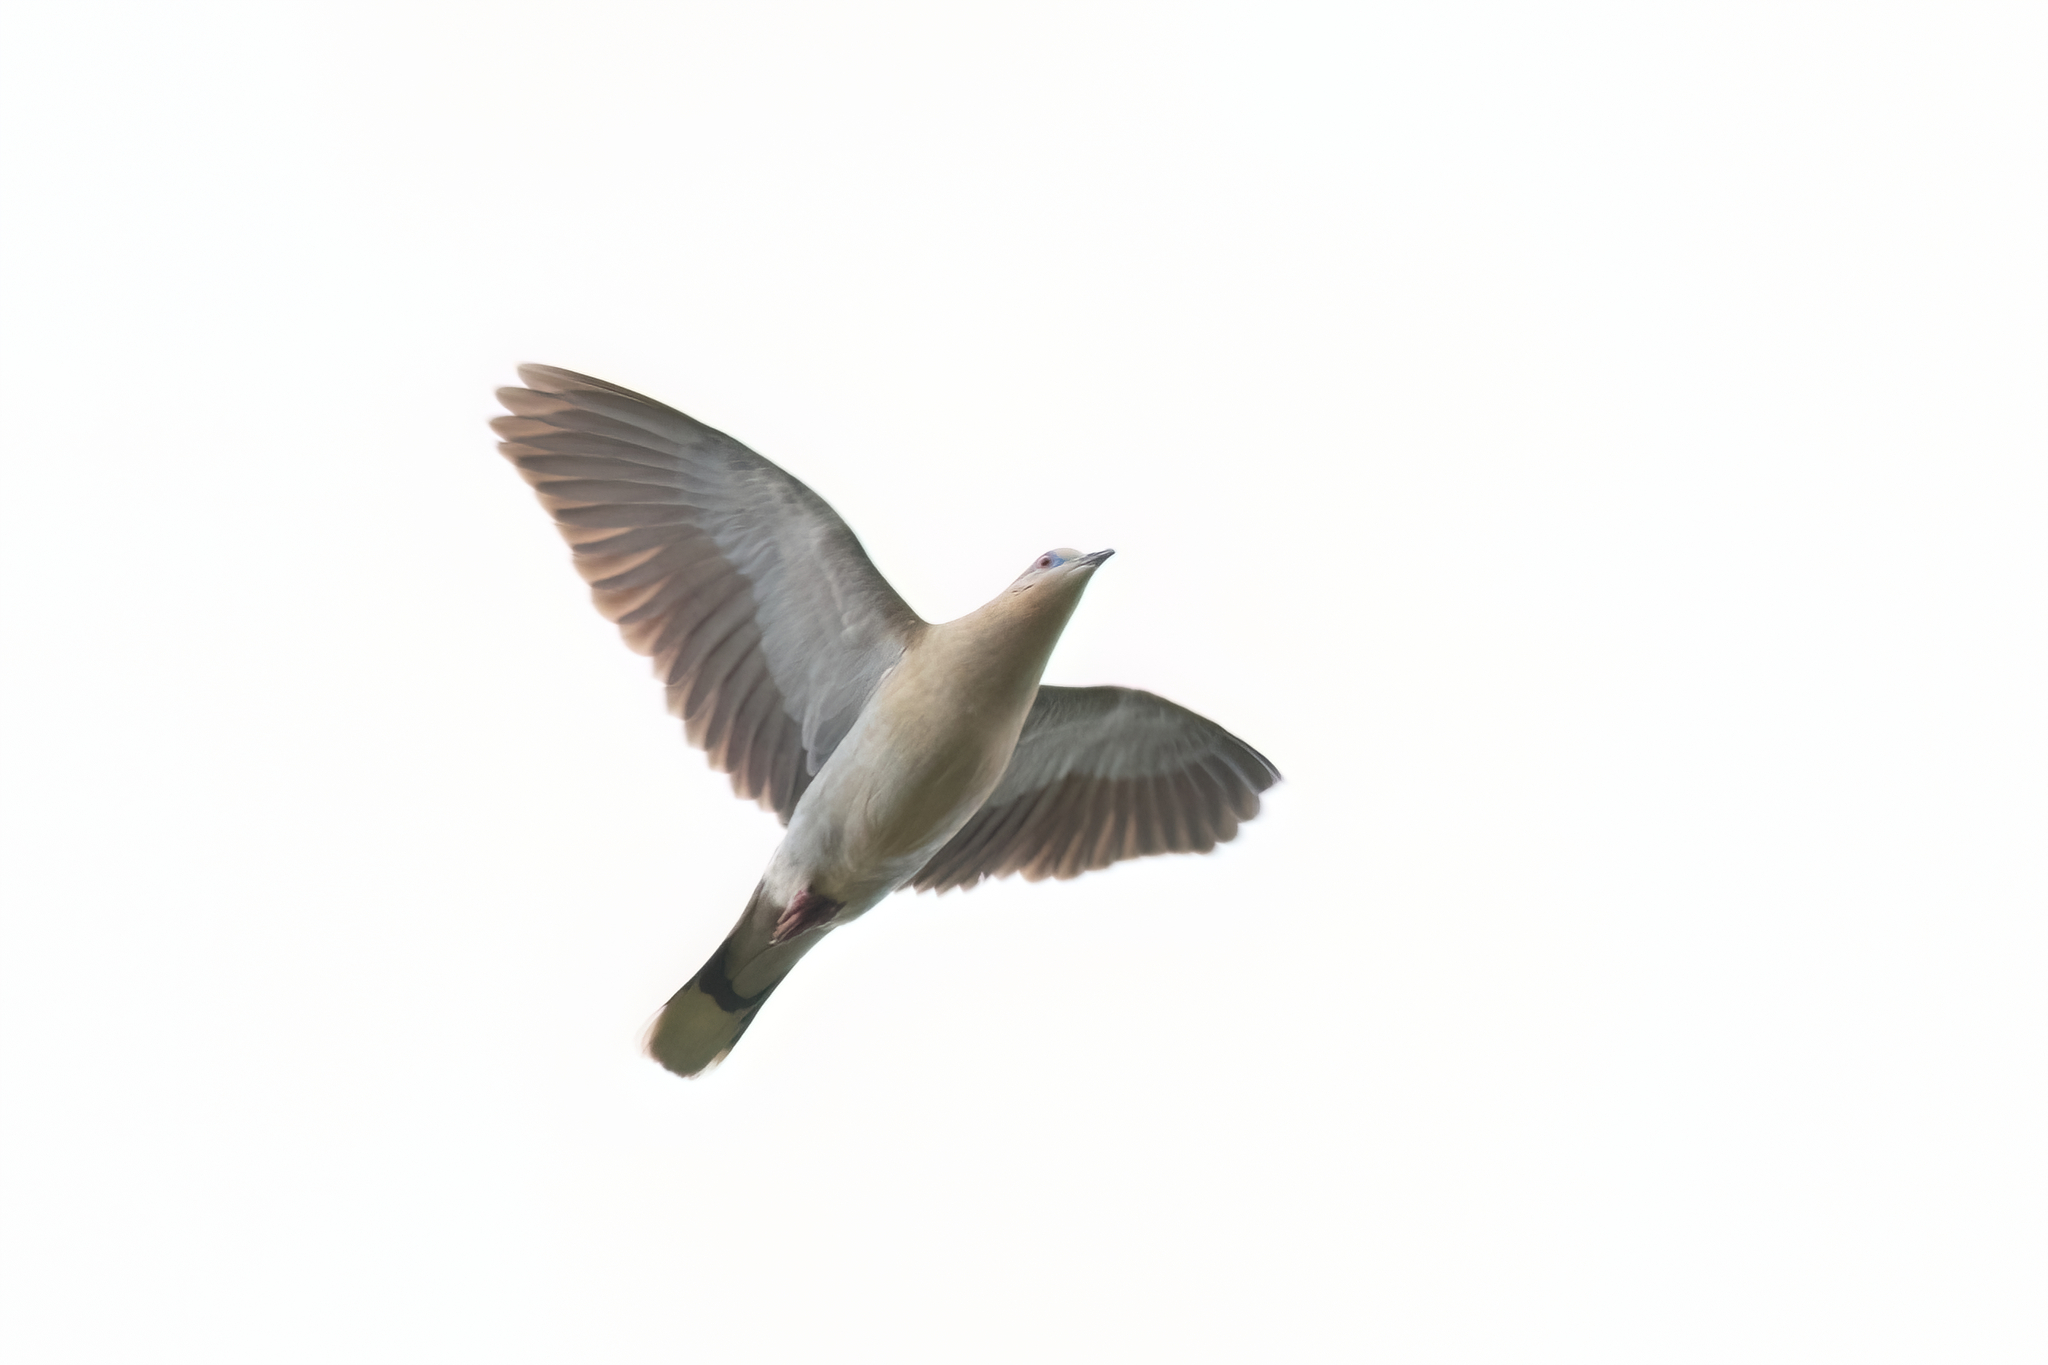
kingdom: Animalia
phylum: Chordata
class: Aves
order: Columbiformes
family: Columbidae
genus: Zenaida
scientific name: Zenaida asiatica
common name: White-winged dove
